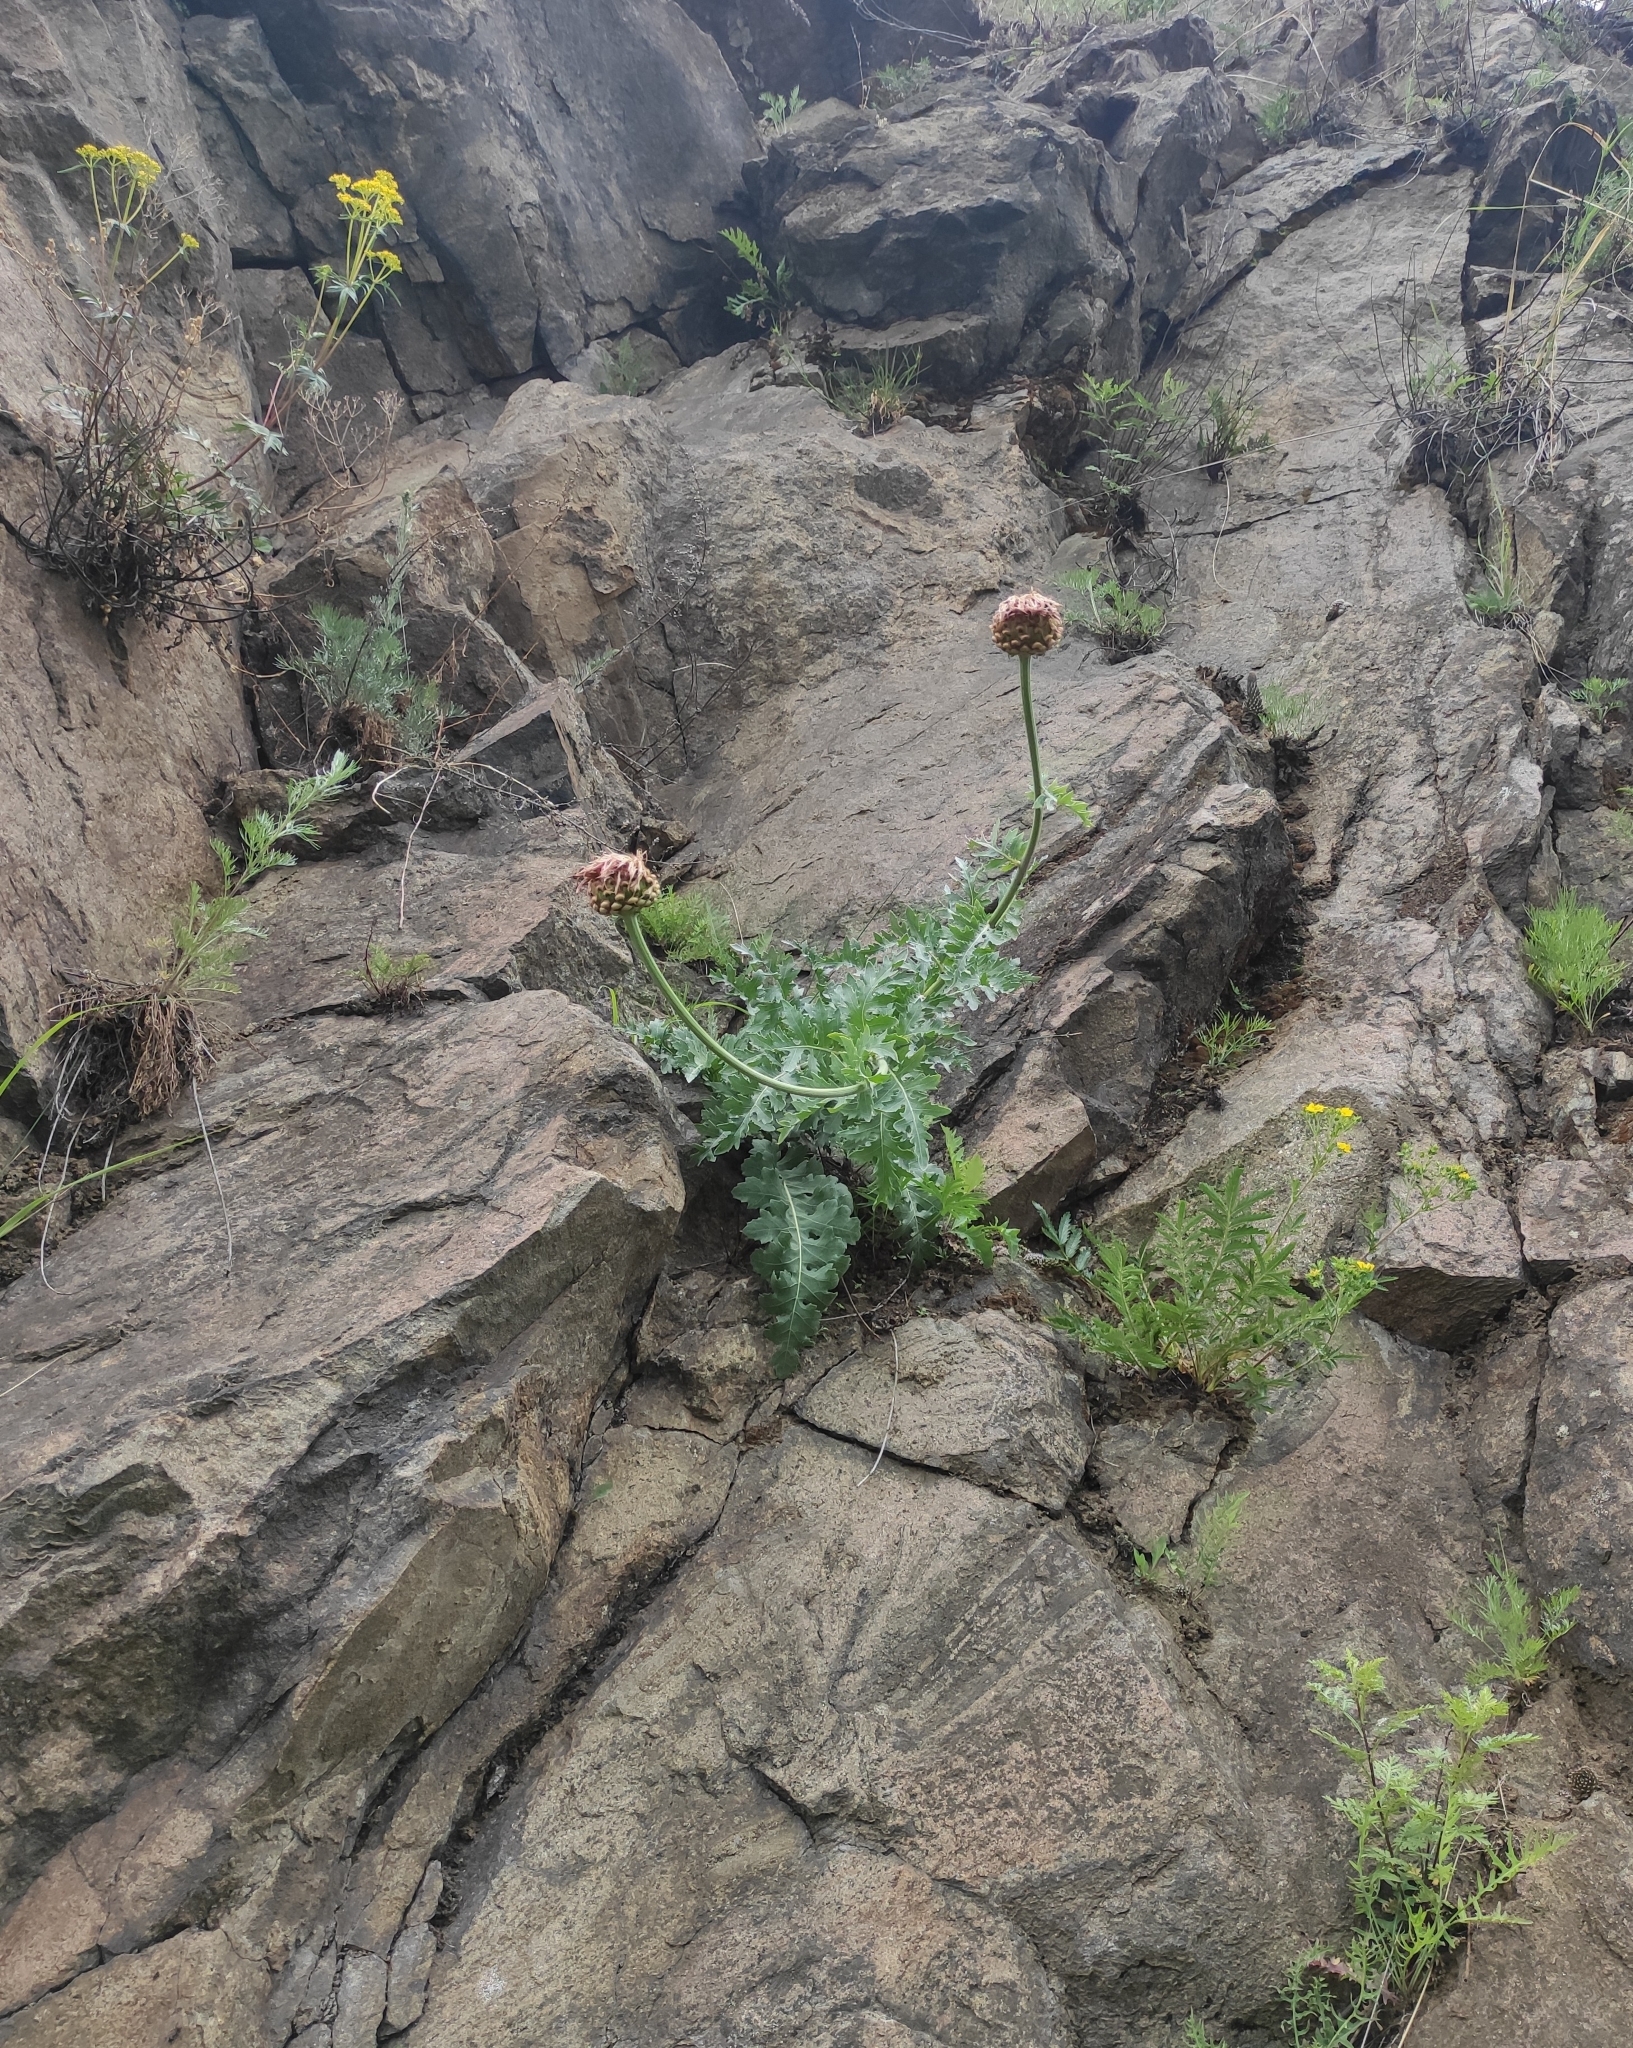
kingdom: Plantae
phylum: Tracheophyta
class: Magnoliopsida
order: Asterales
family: Asteraceae
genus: Leuzea
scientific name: Leuzea uniflora
